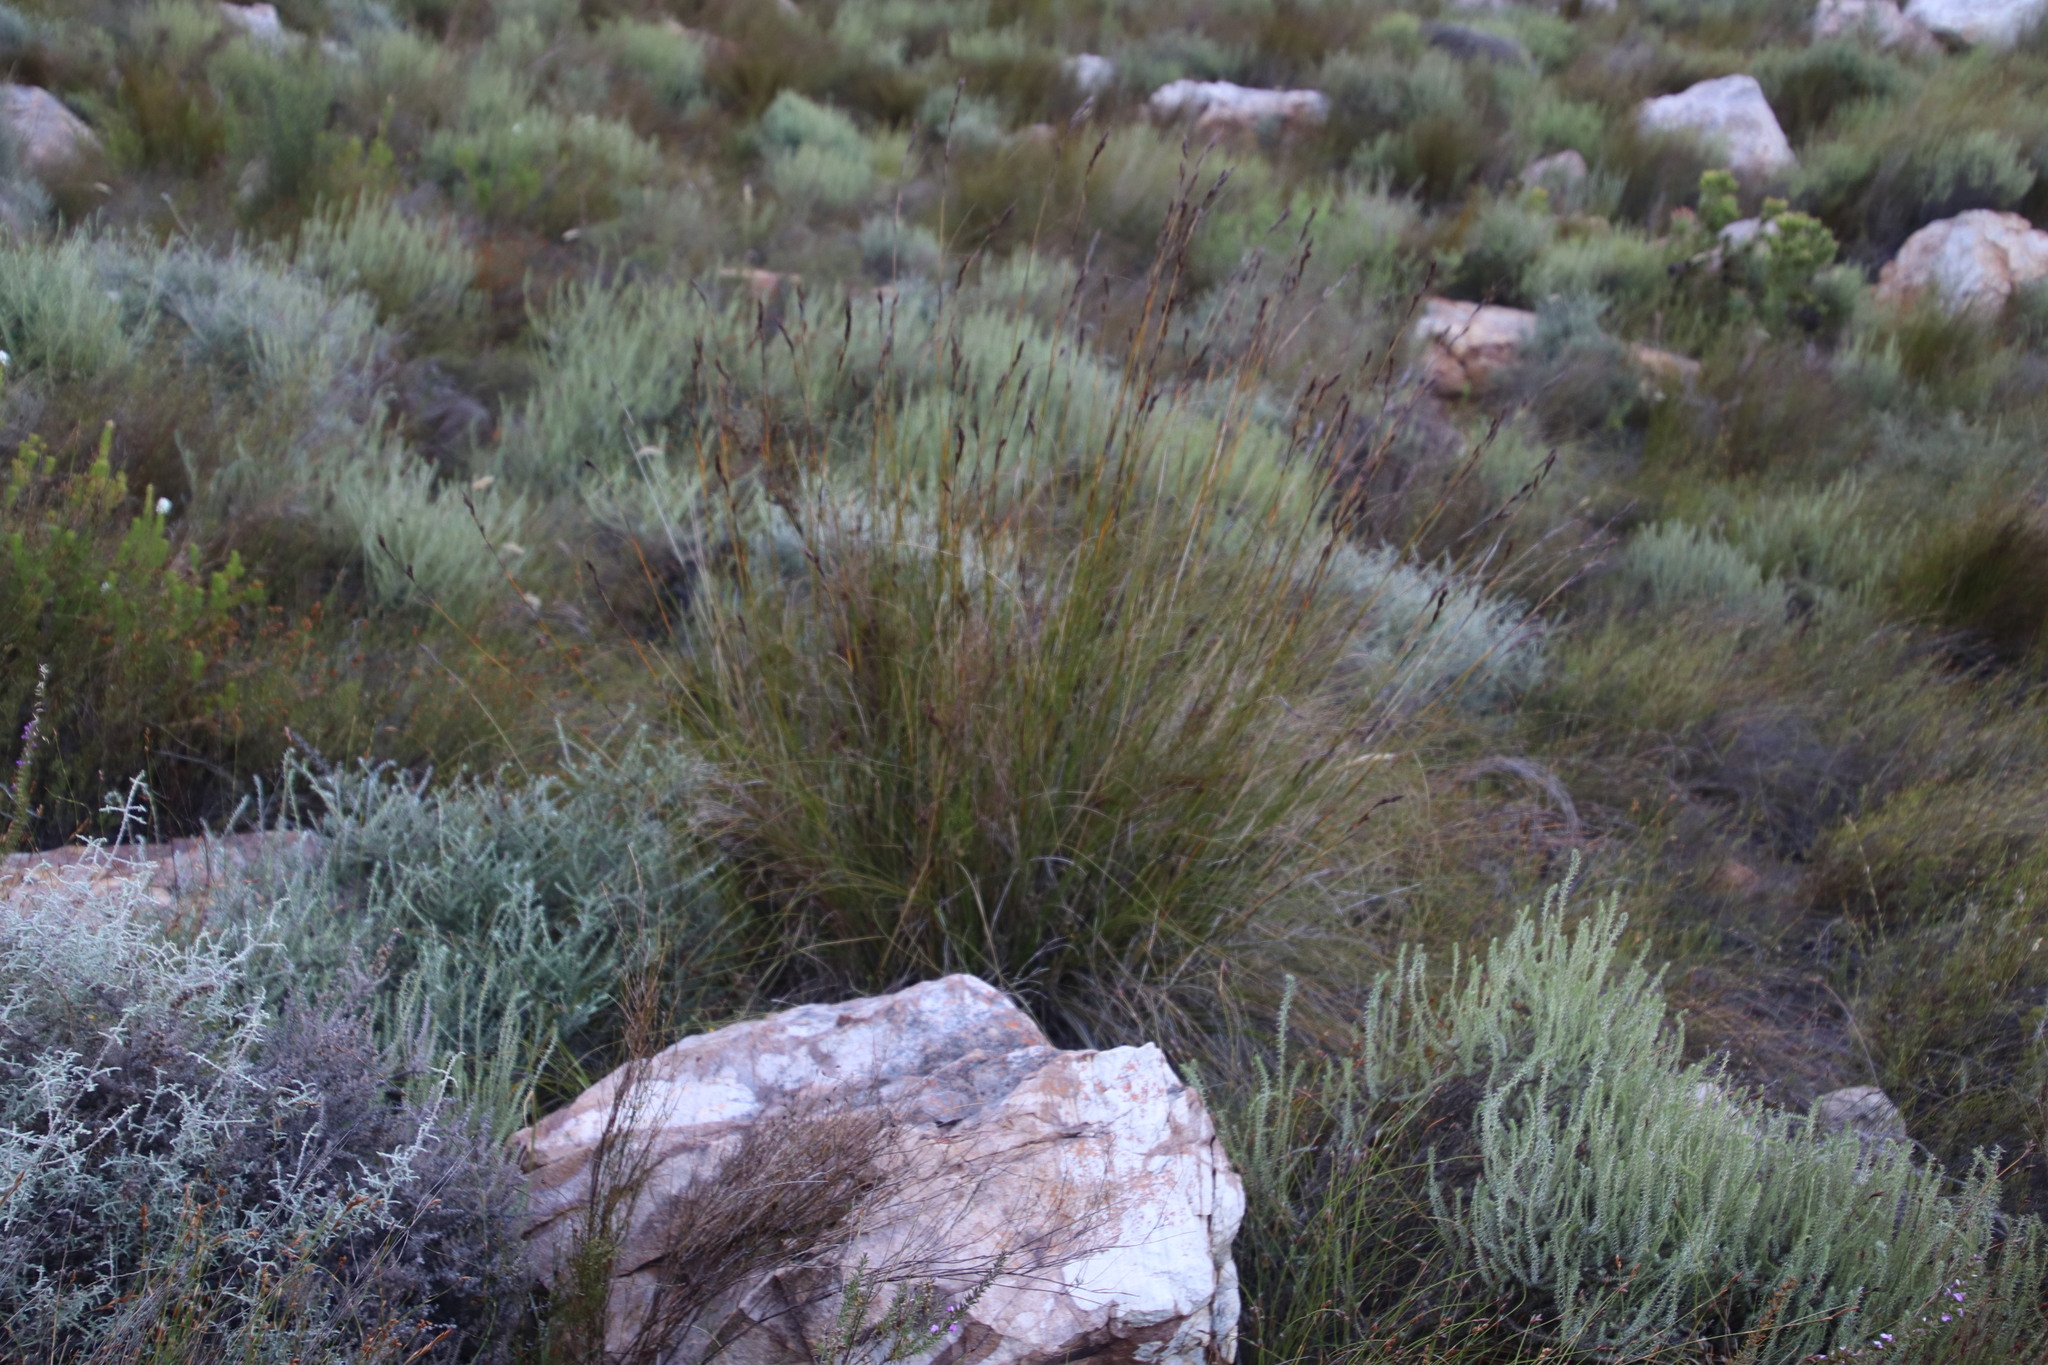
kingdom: Plantae
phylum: Tracheophyta
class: Liliopsida
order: Poales
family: Cyperaceae
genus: Tetraria
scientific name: Tetraria ustulata
